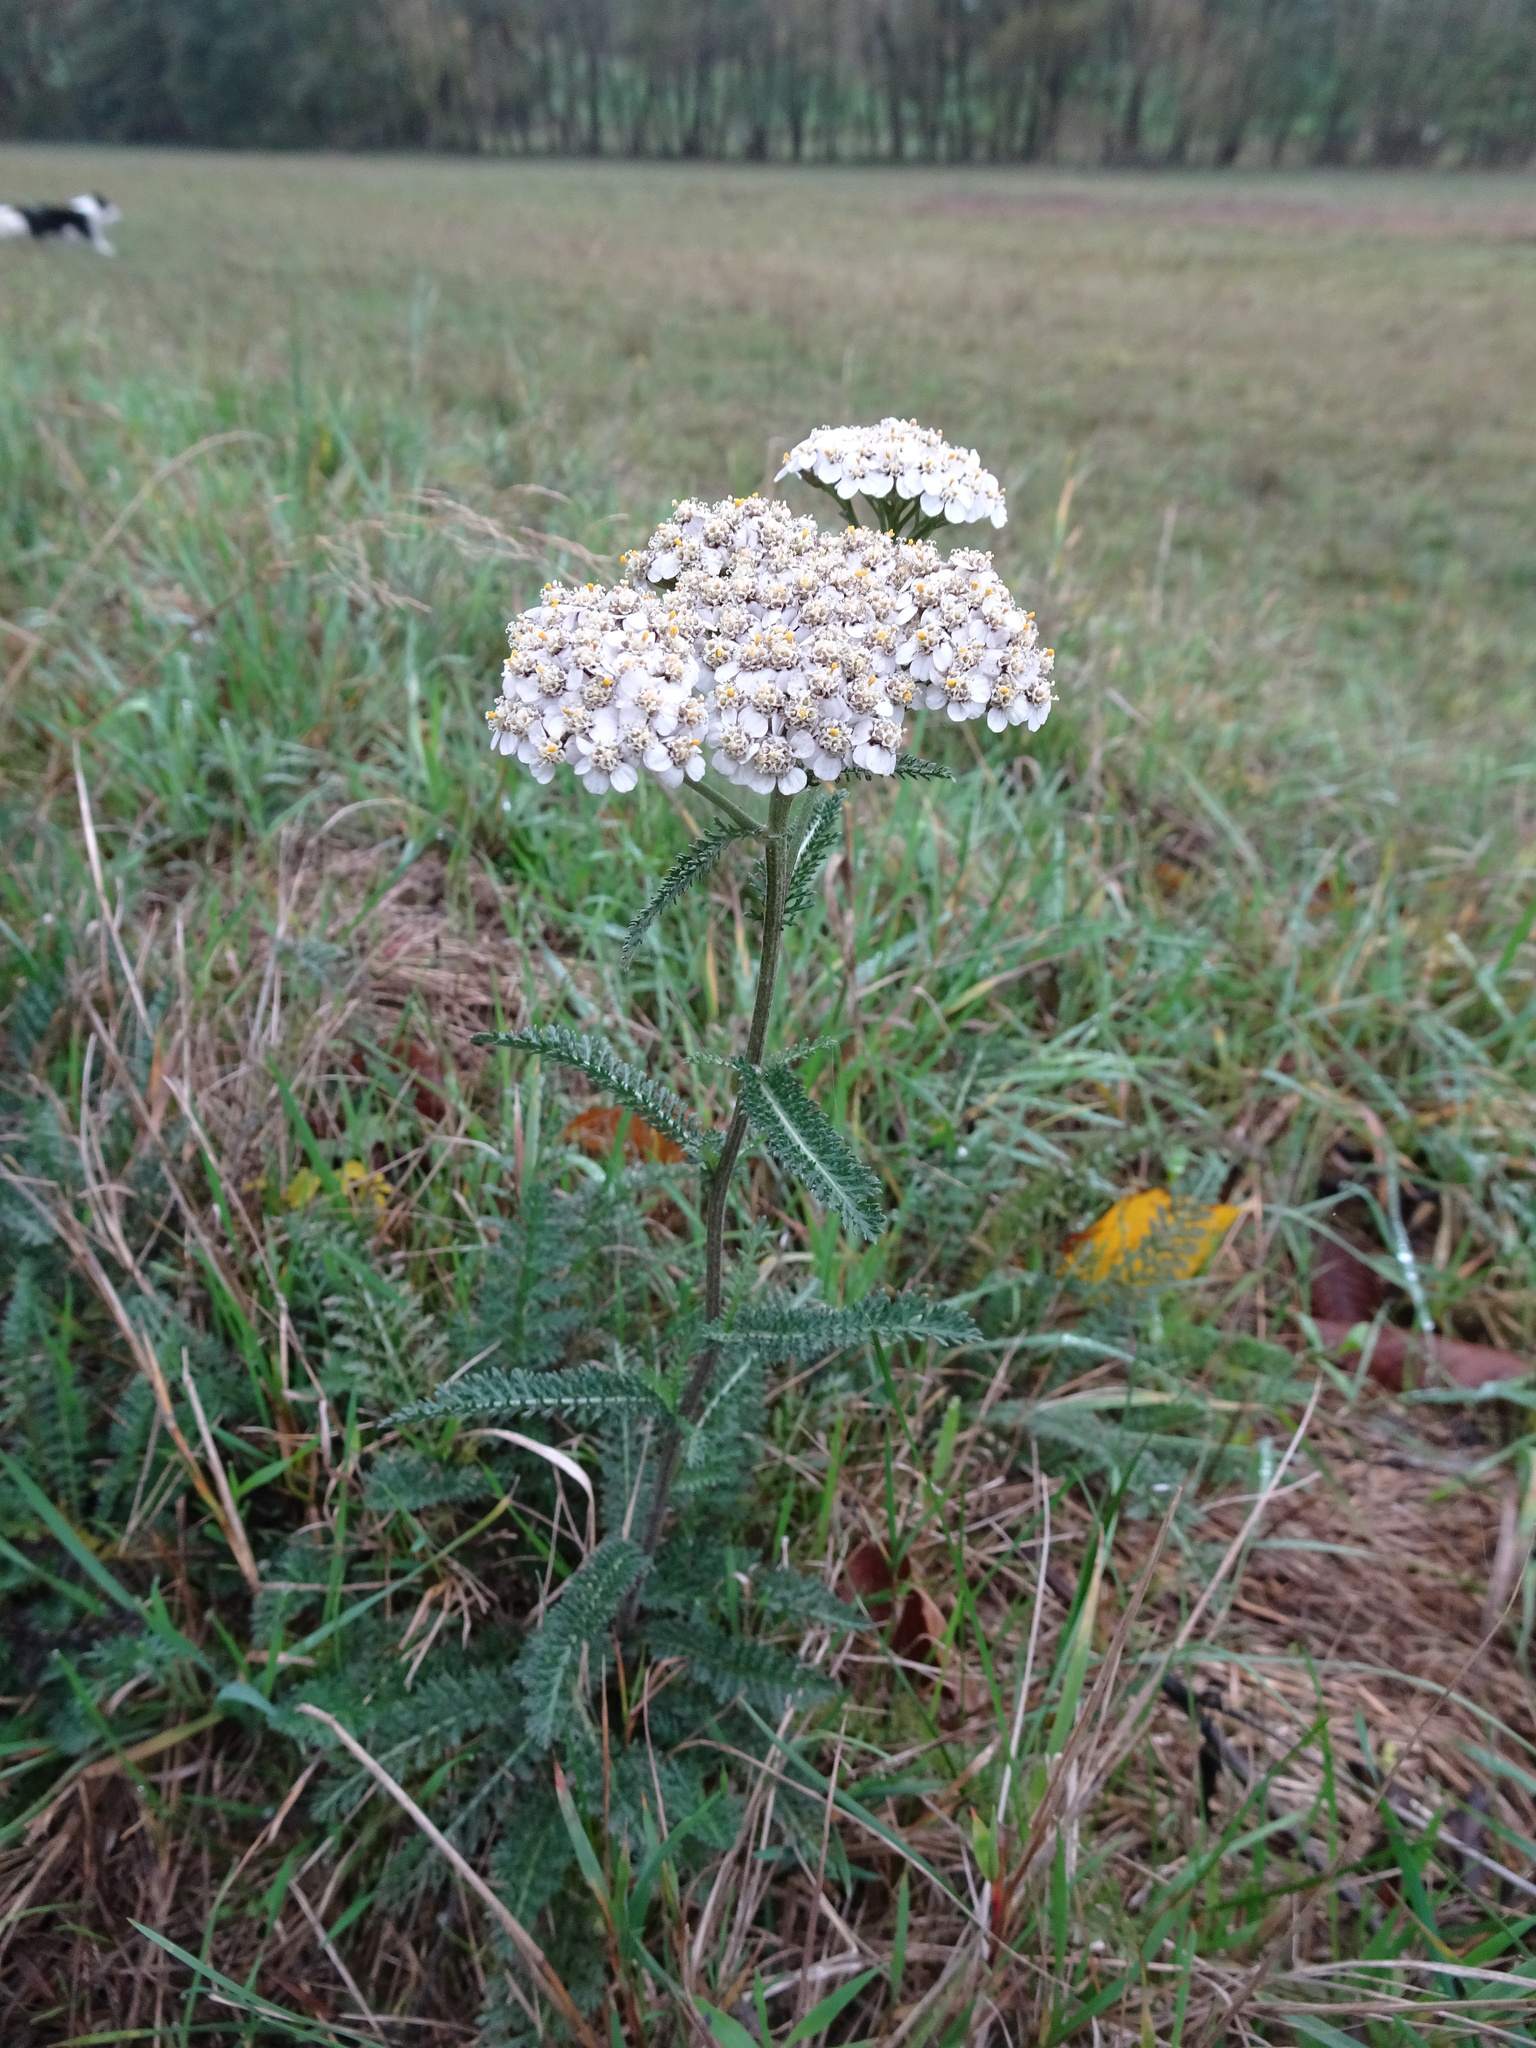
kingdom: Plantae
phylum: Tracheophyta
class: Magnoliopsida
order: Asterales
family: Asteraceae
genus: Achillea
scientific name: Achillea millefolium
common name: Yarrow
